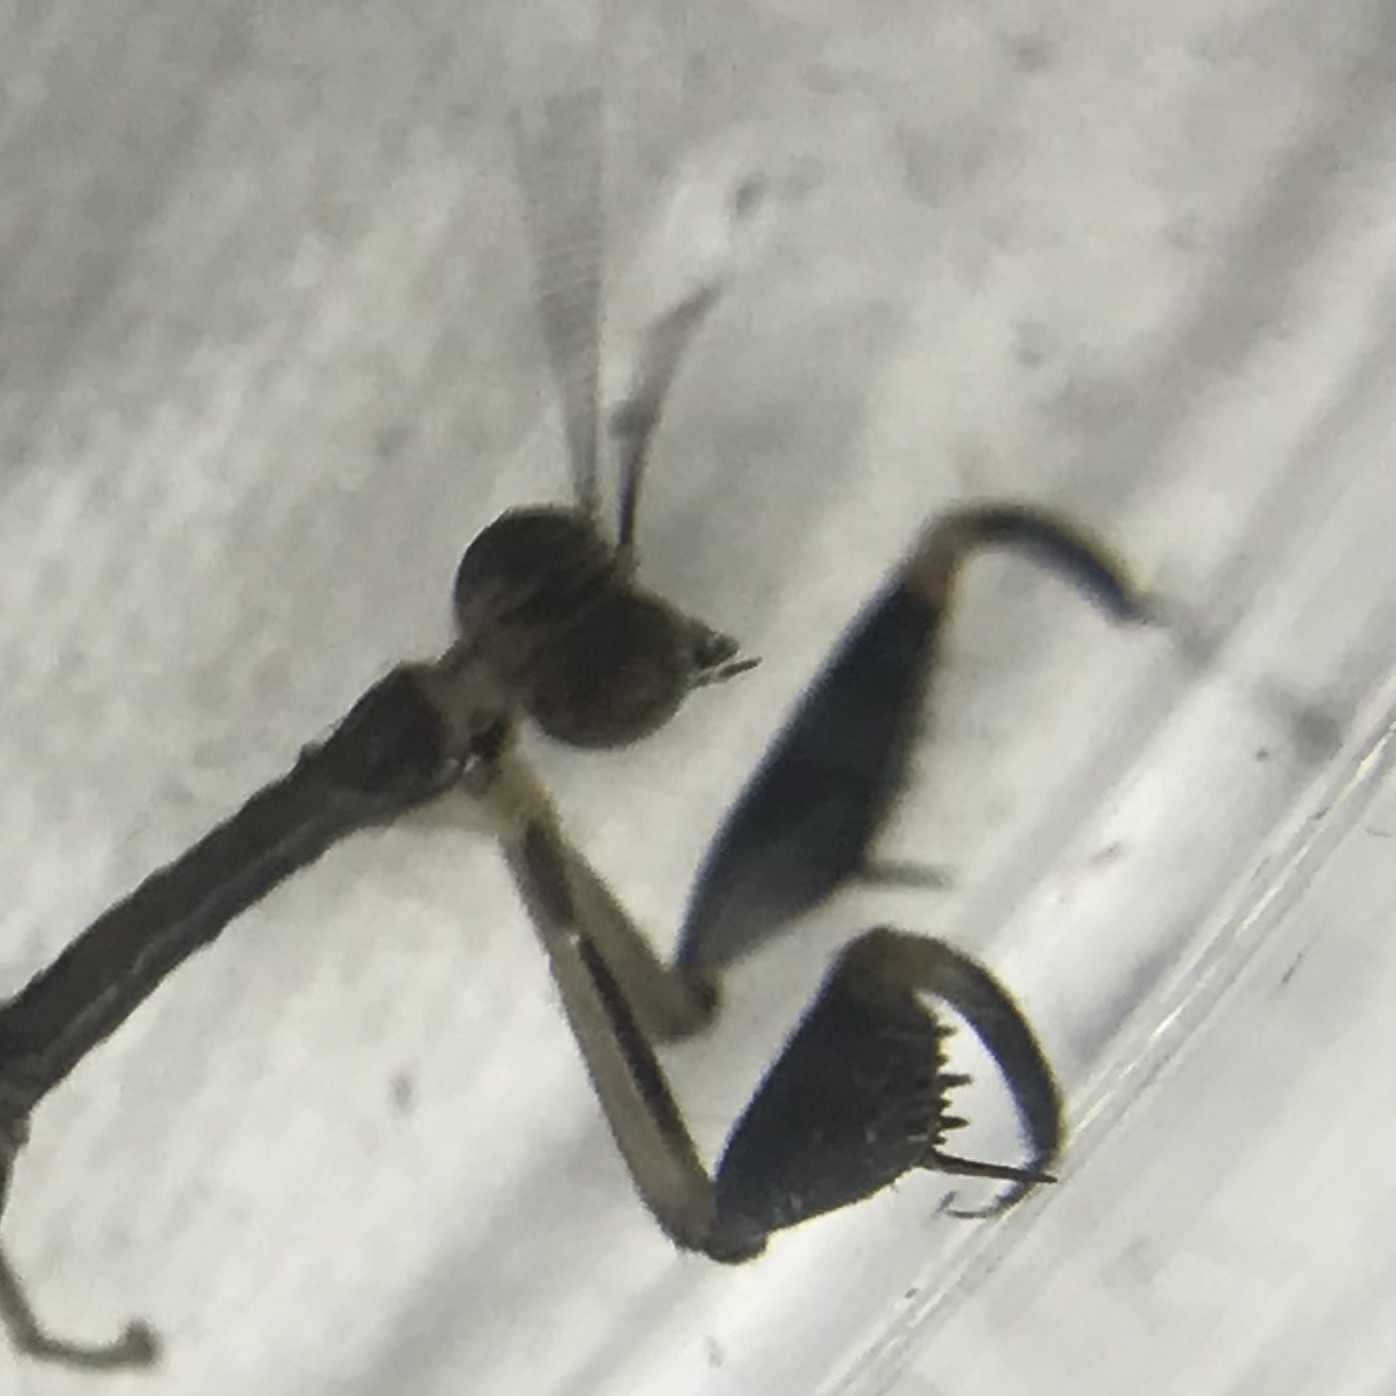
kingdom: Animalia
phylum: Arthropoda
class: Insecta
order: Neuroptera
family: Mantispidae
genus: Dicromantispa
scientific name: Dicromantispa sayi
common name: Say's mantidfly
